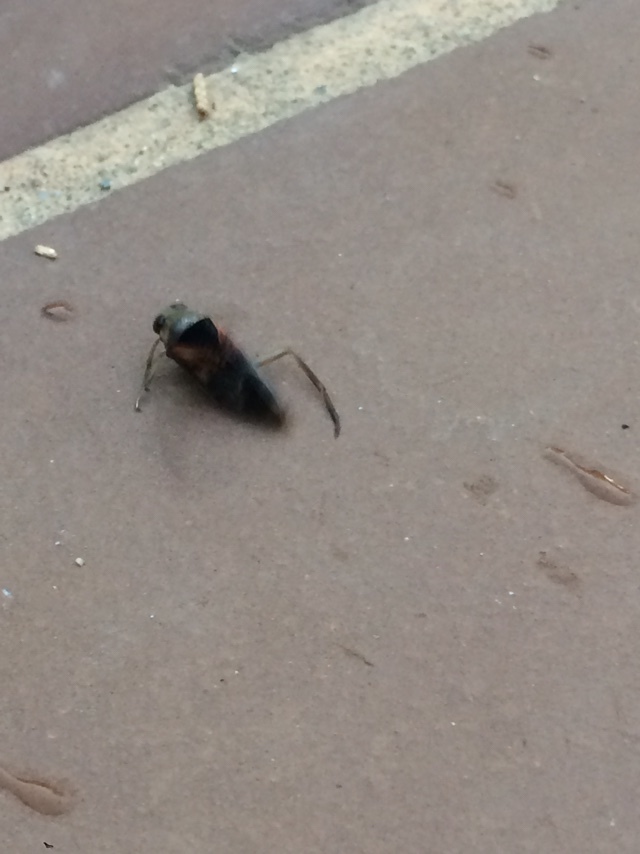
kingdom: Animalia
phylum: Arthropoda
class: Insecta
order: Hemiptera
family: Notonectidae
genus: Notonecta
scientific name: Notonecta kirbyi
